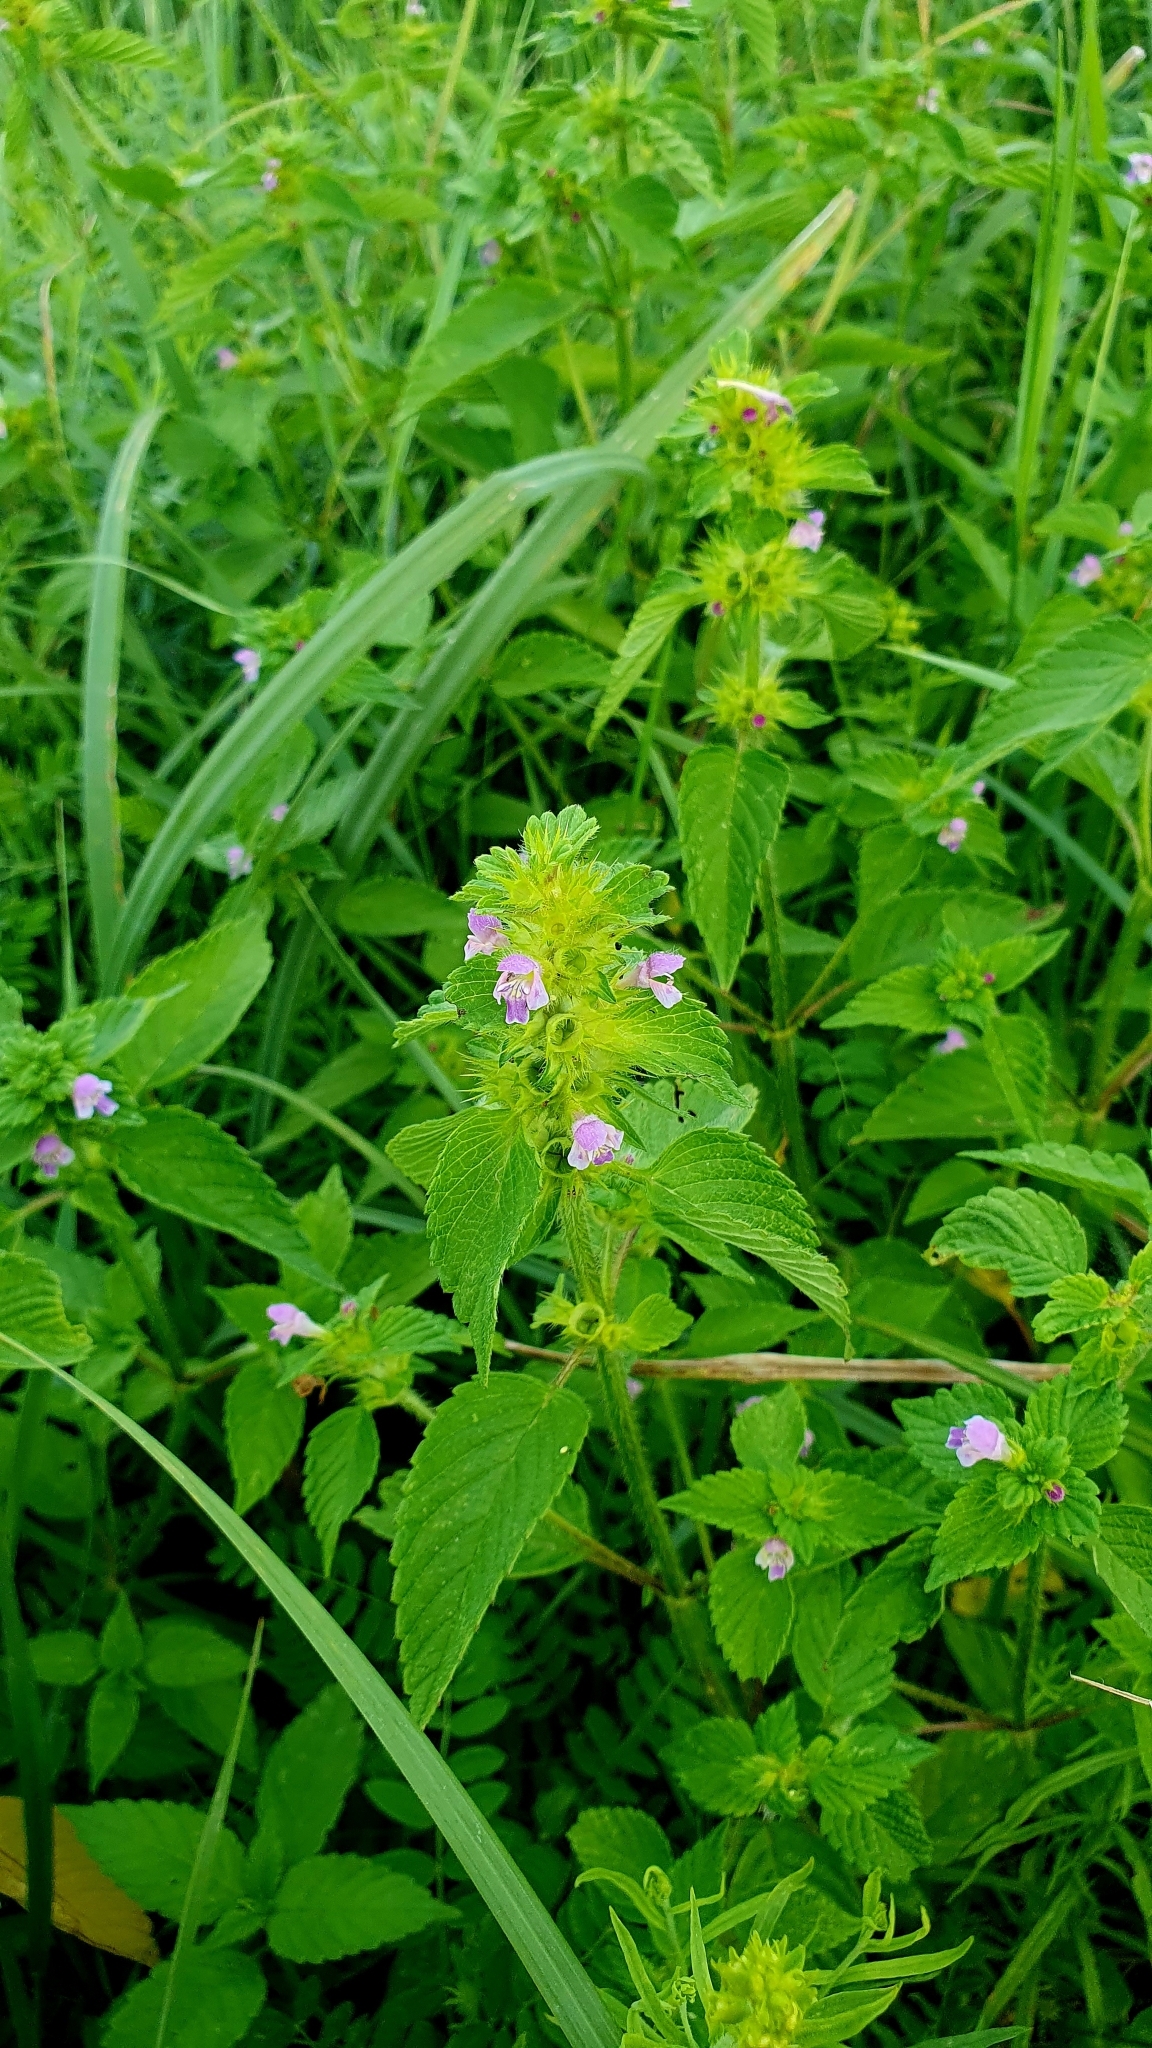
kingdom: Plantae
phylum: Tracheophyta
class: Magnoliopsida
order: Lamiales
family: Lamiaceae
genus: Galeopsis
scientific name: Galeopsis bifida
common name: Bifid hemp-nettle
